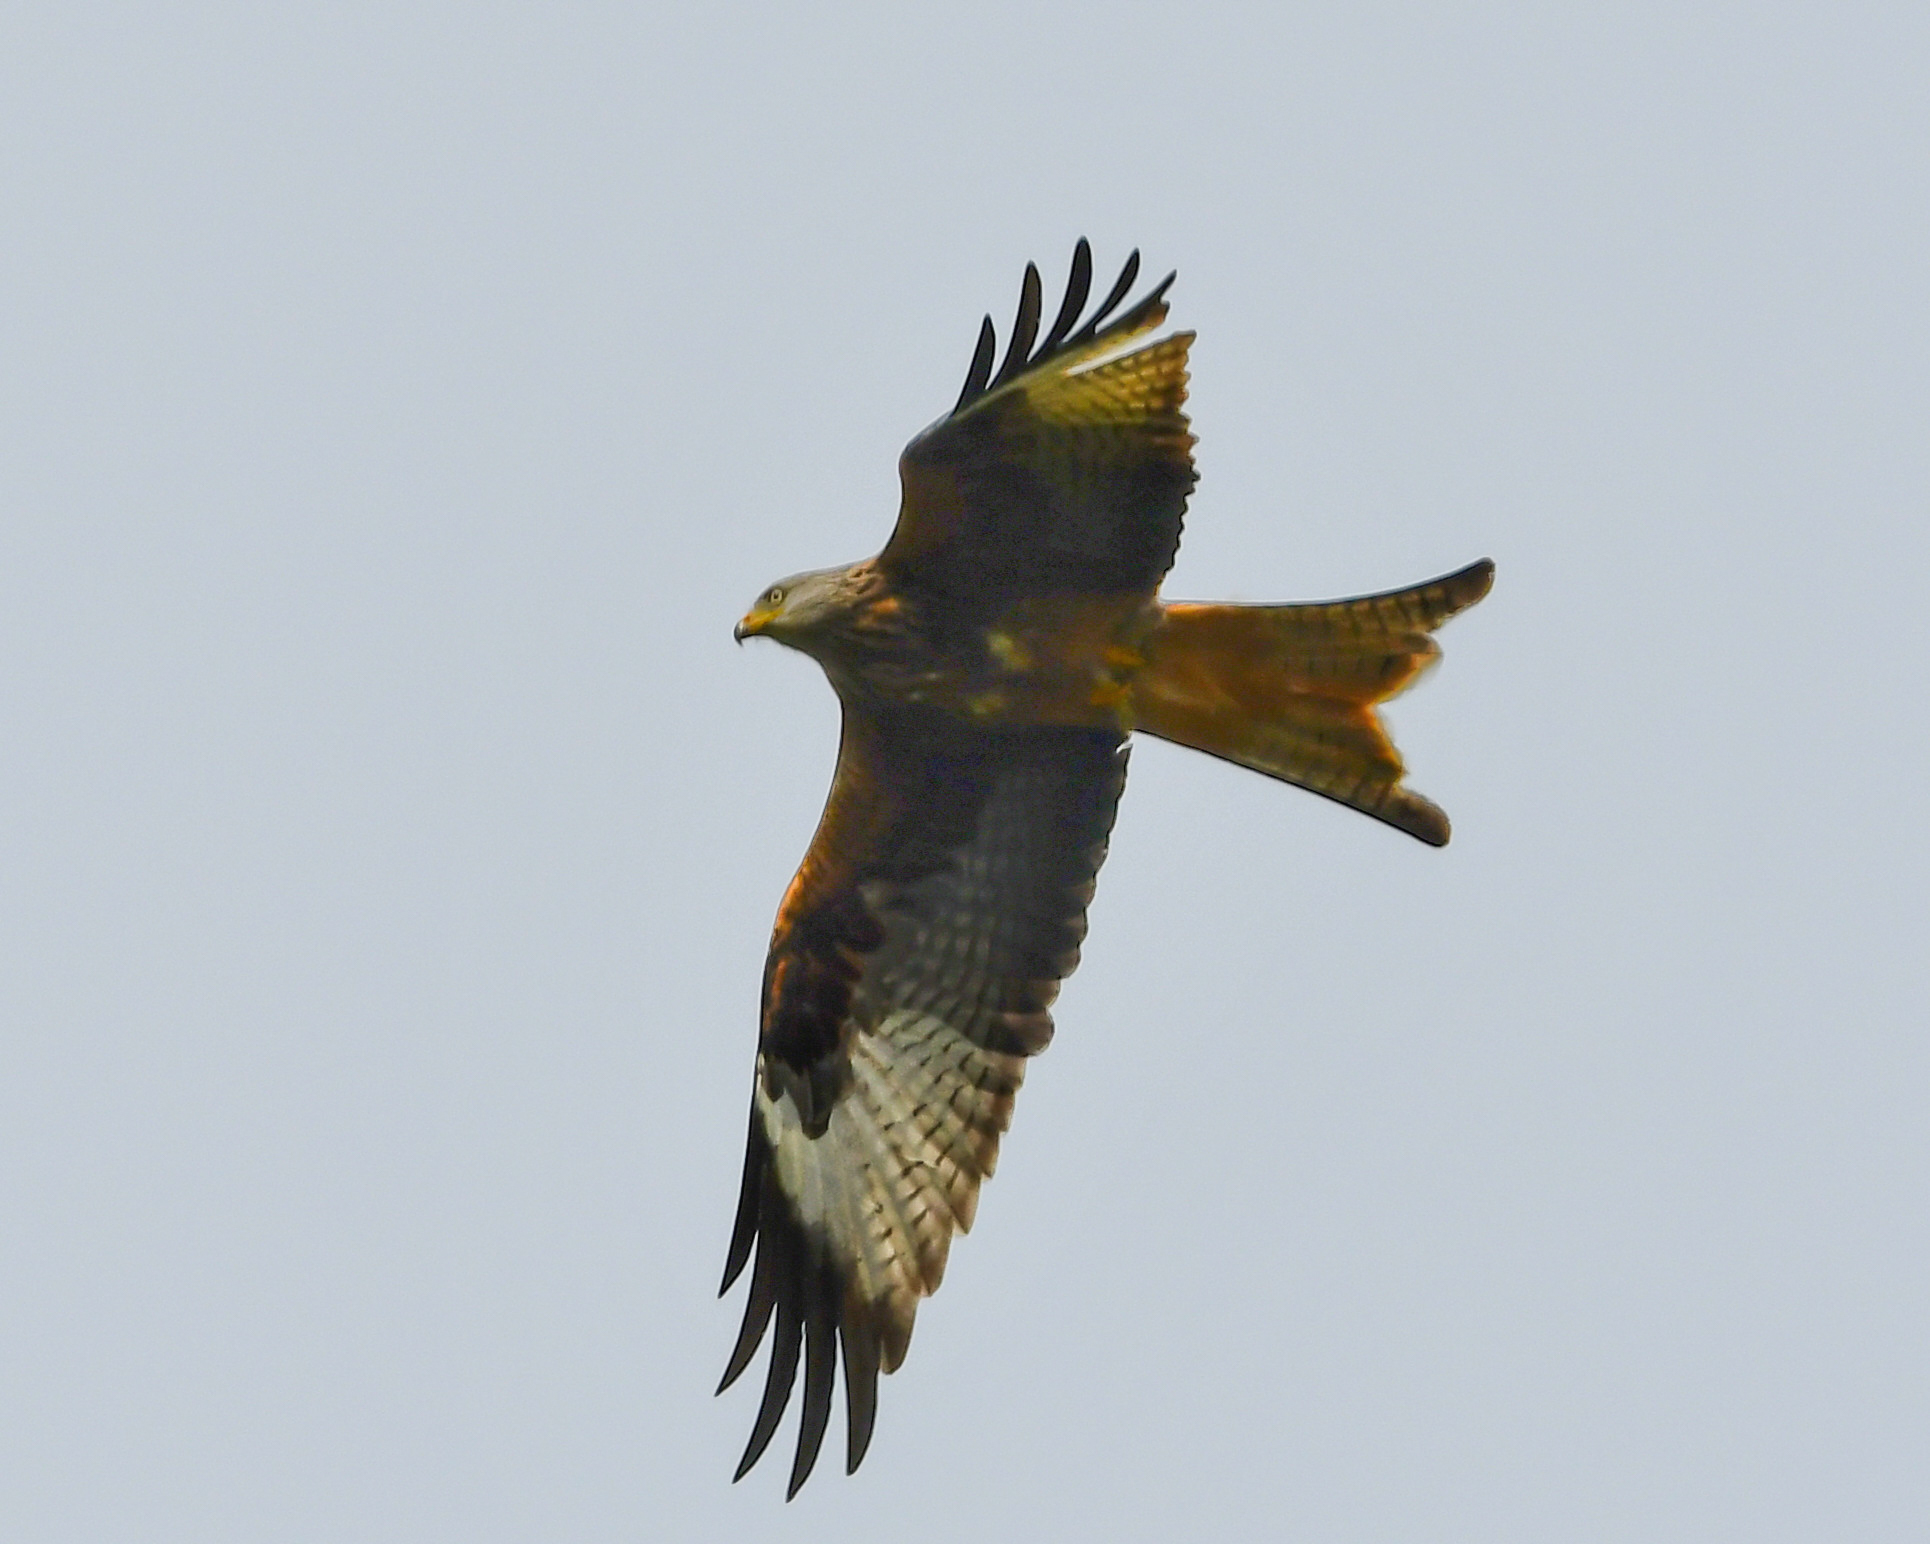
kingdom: Animalia
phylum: Chordata
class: Aves
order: Accipitriformes
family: Accipitridae
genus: Milvus
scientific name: Milvus milvus
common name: Red kite
